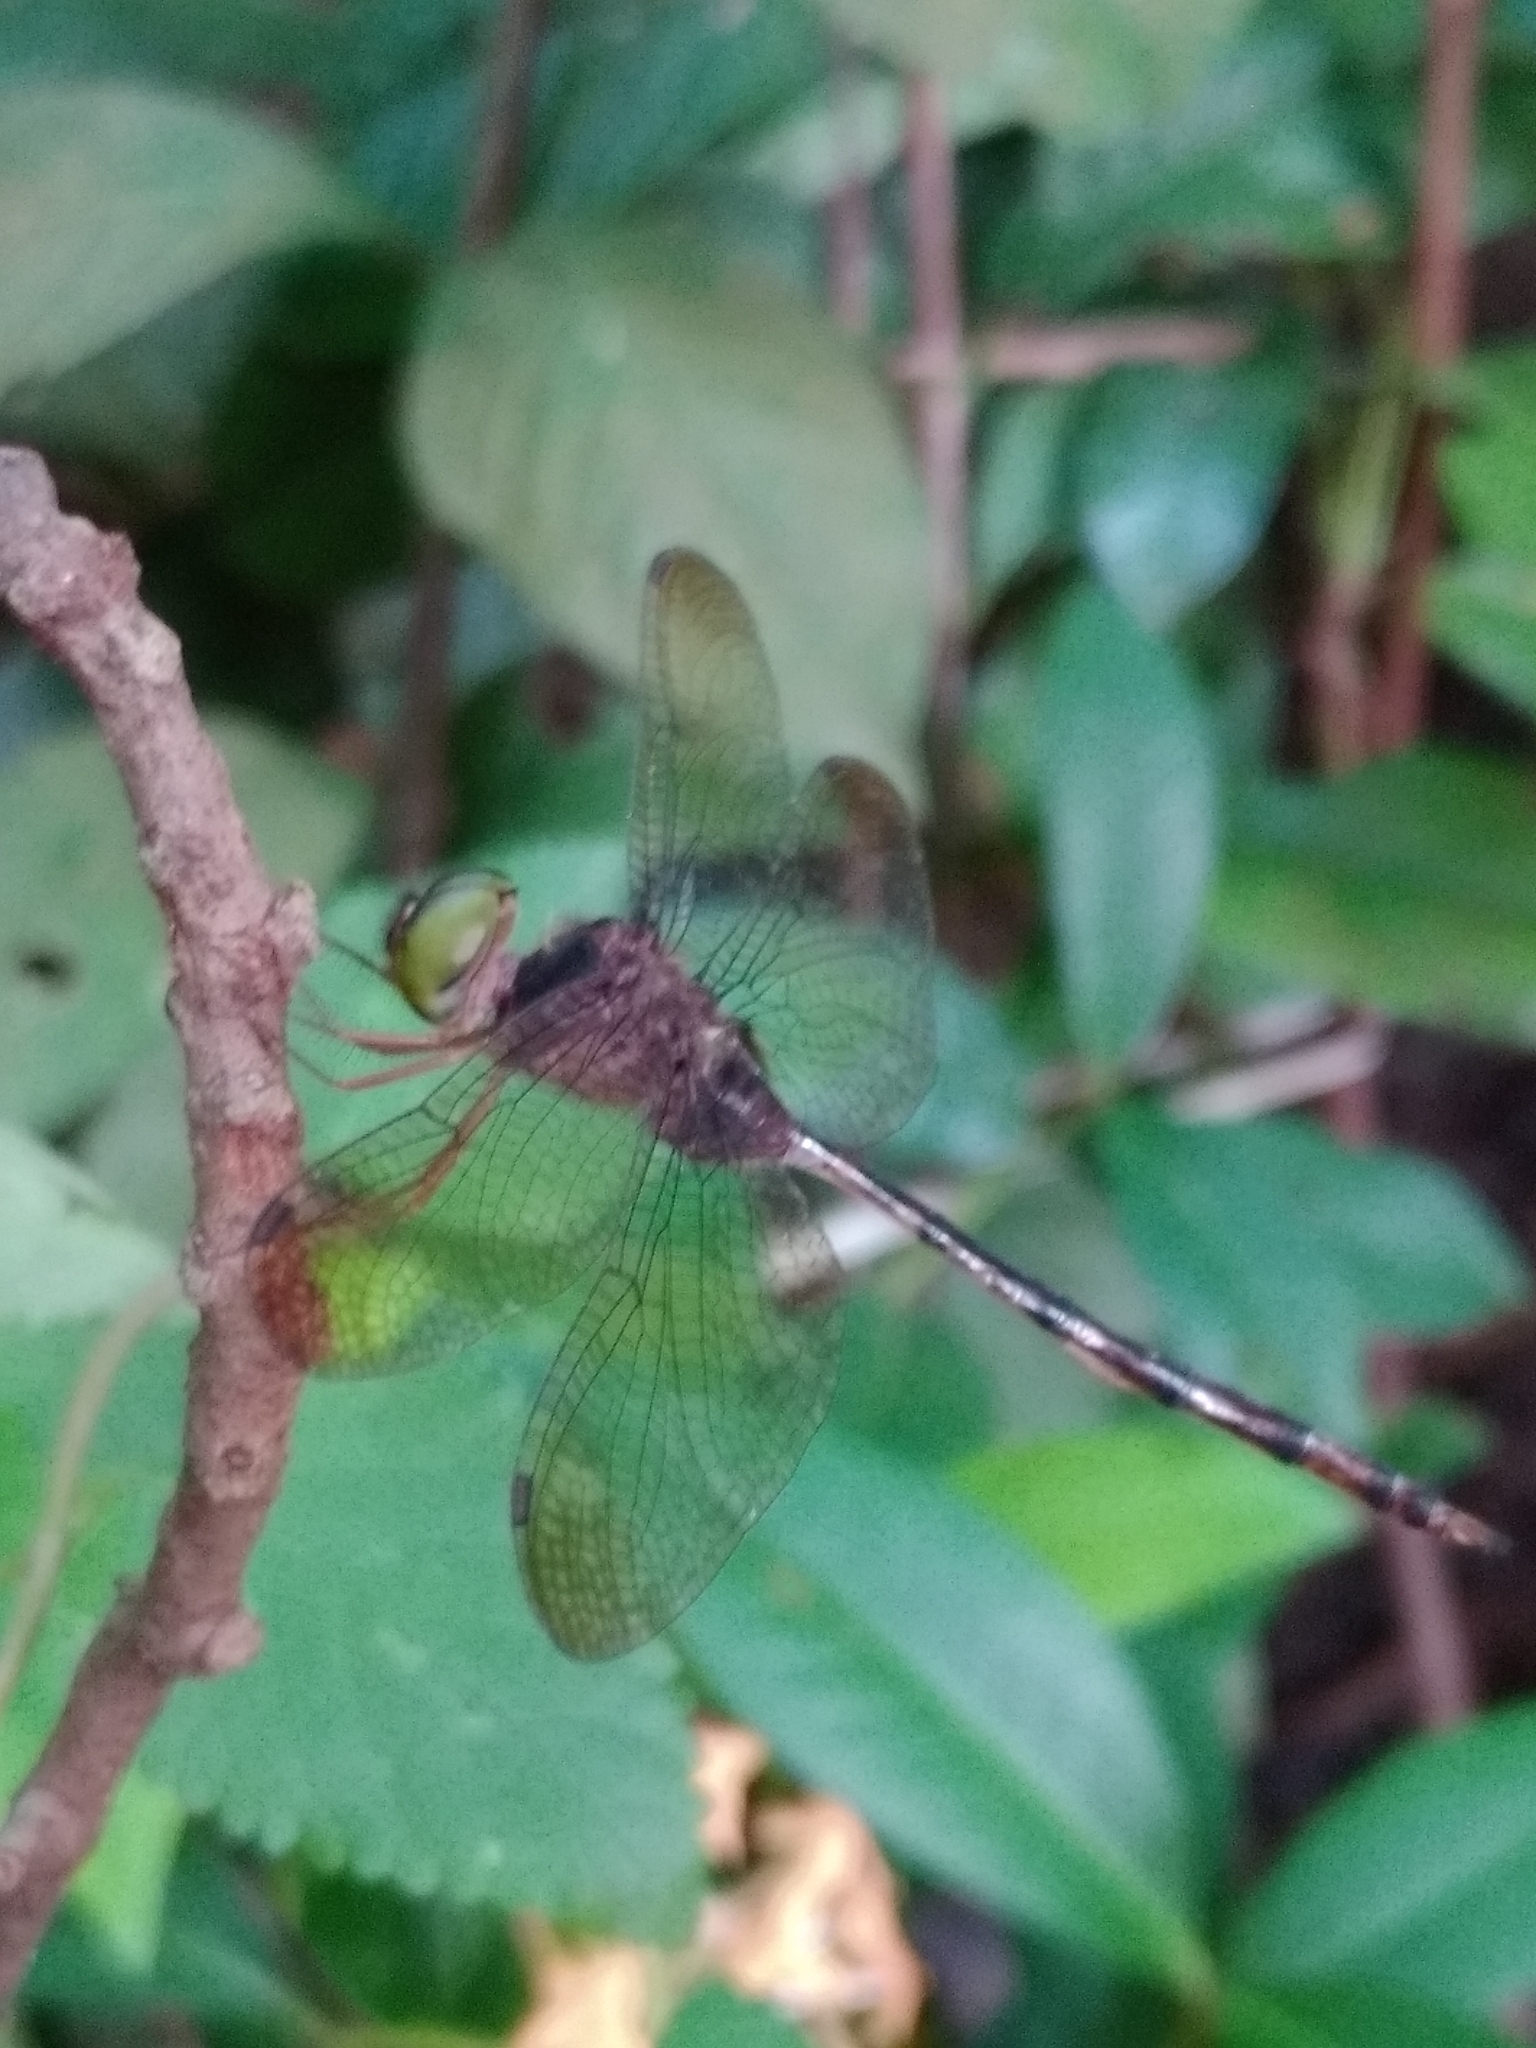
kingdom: Animalia
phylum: Arthropoda
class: Insecta
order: Odonata
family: Libellulidae
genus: Zyxomma
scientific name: Zyxomma petiolatum
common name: Dingy dusk-darter
